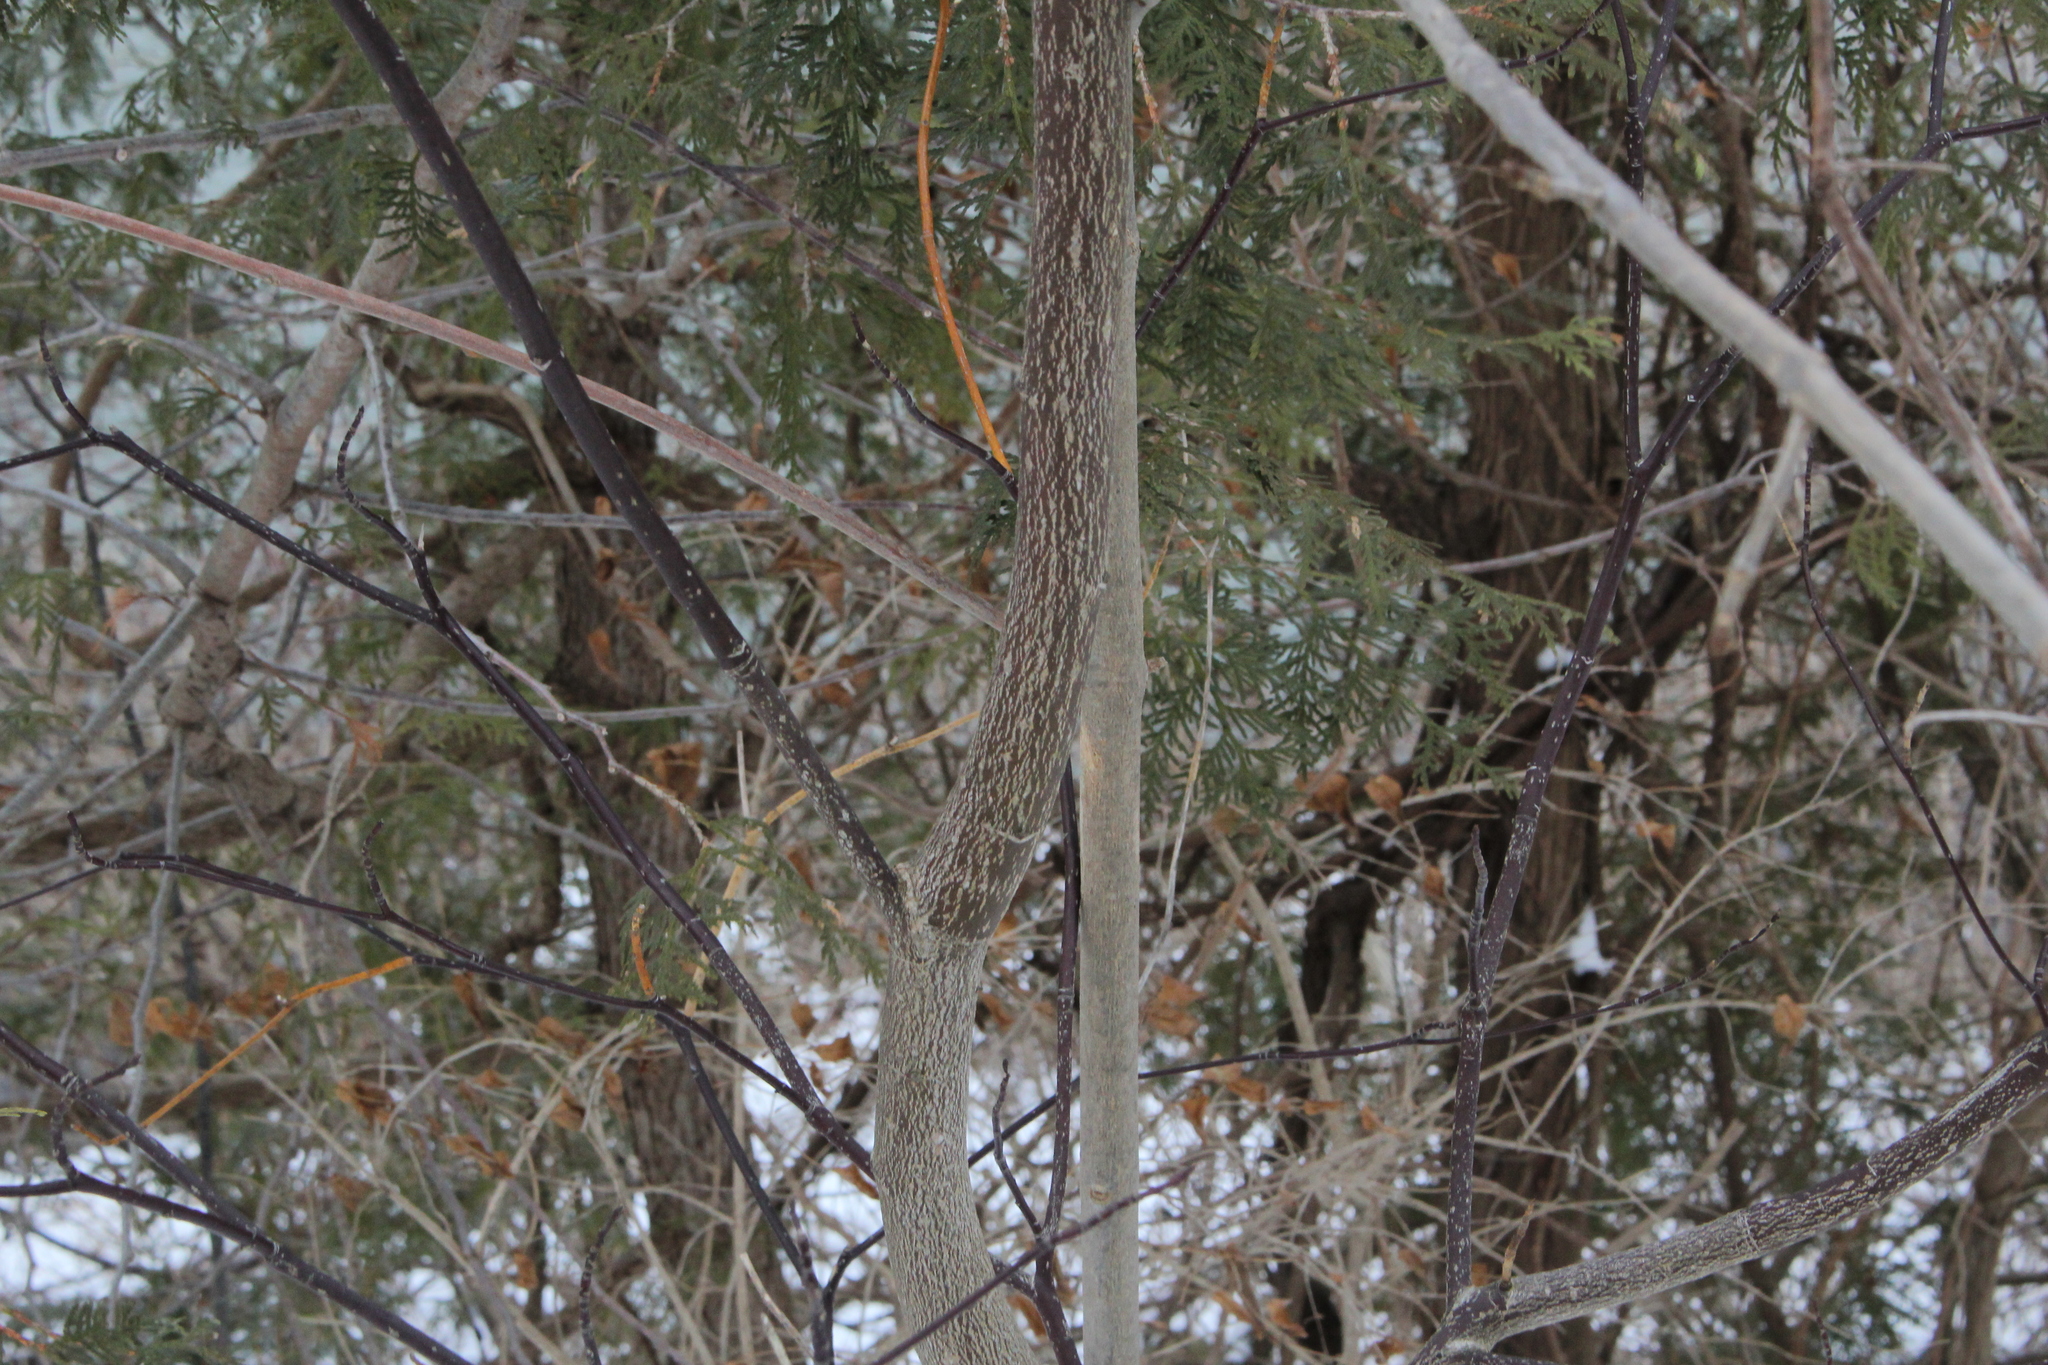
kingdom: Plantae
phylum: Tracheophyta
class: Magnoliopsida
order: Cornales
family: Cornaceae
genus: Cornus
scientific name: Cornus alternifolia
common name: Pagoda dogwood
